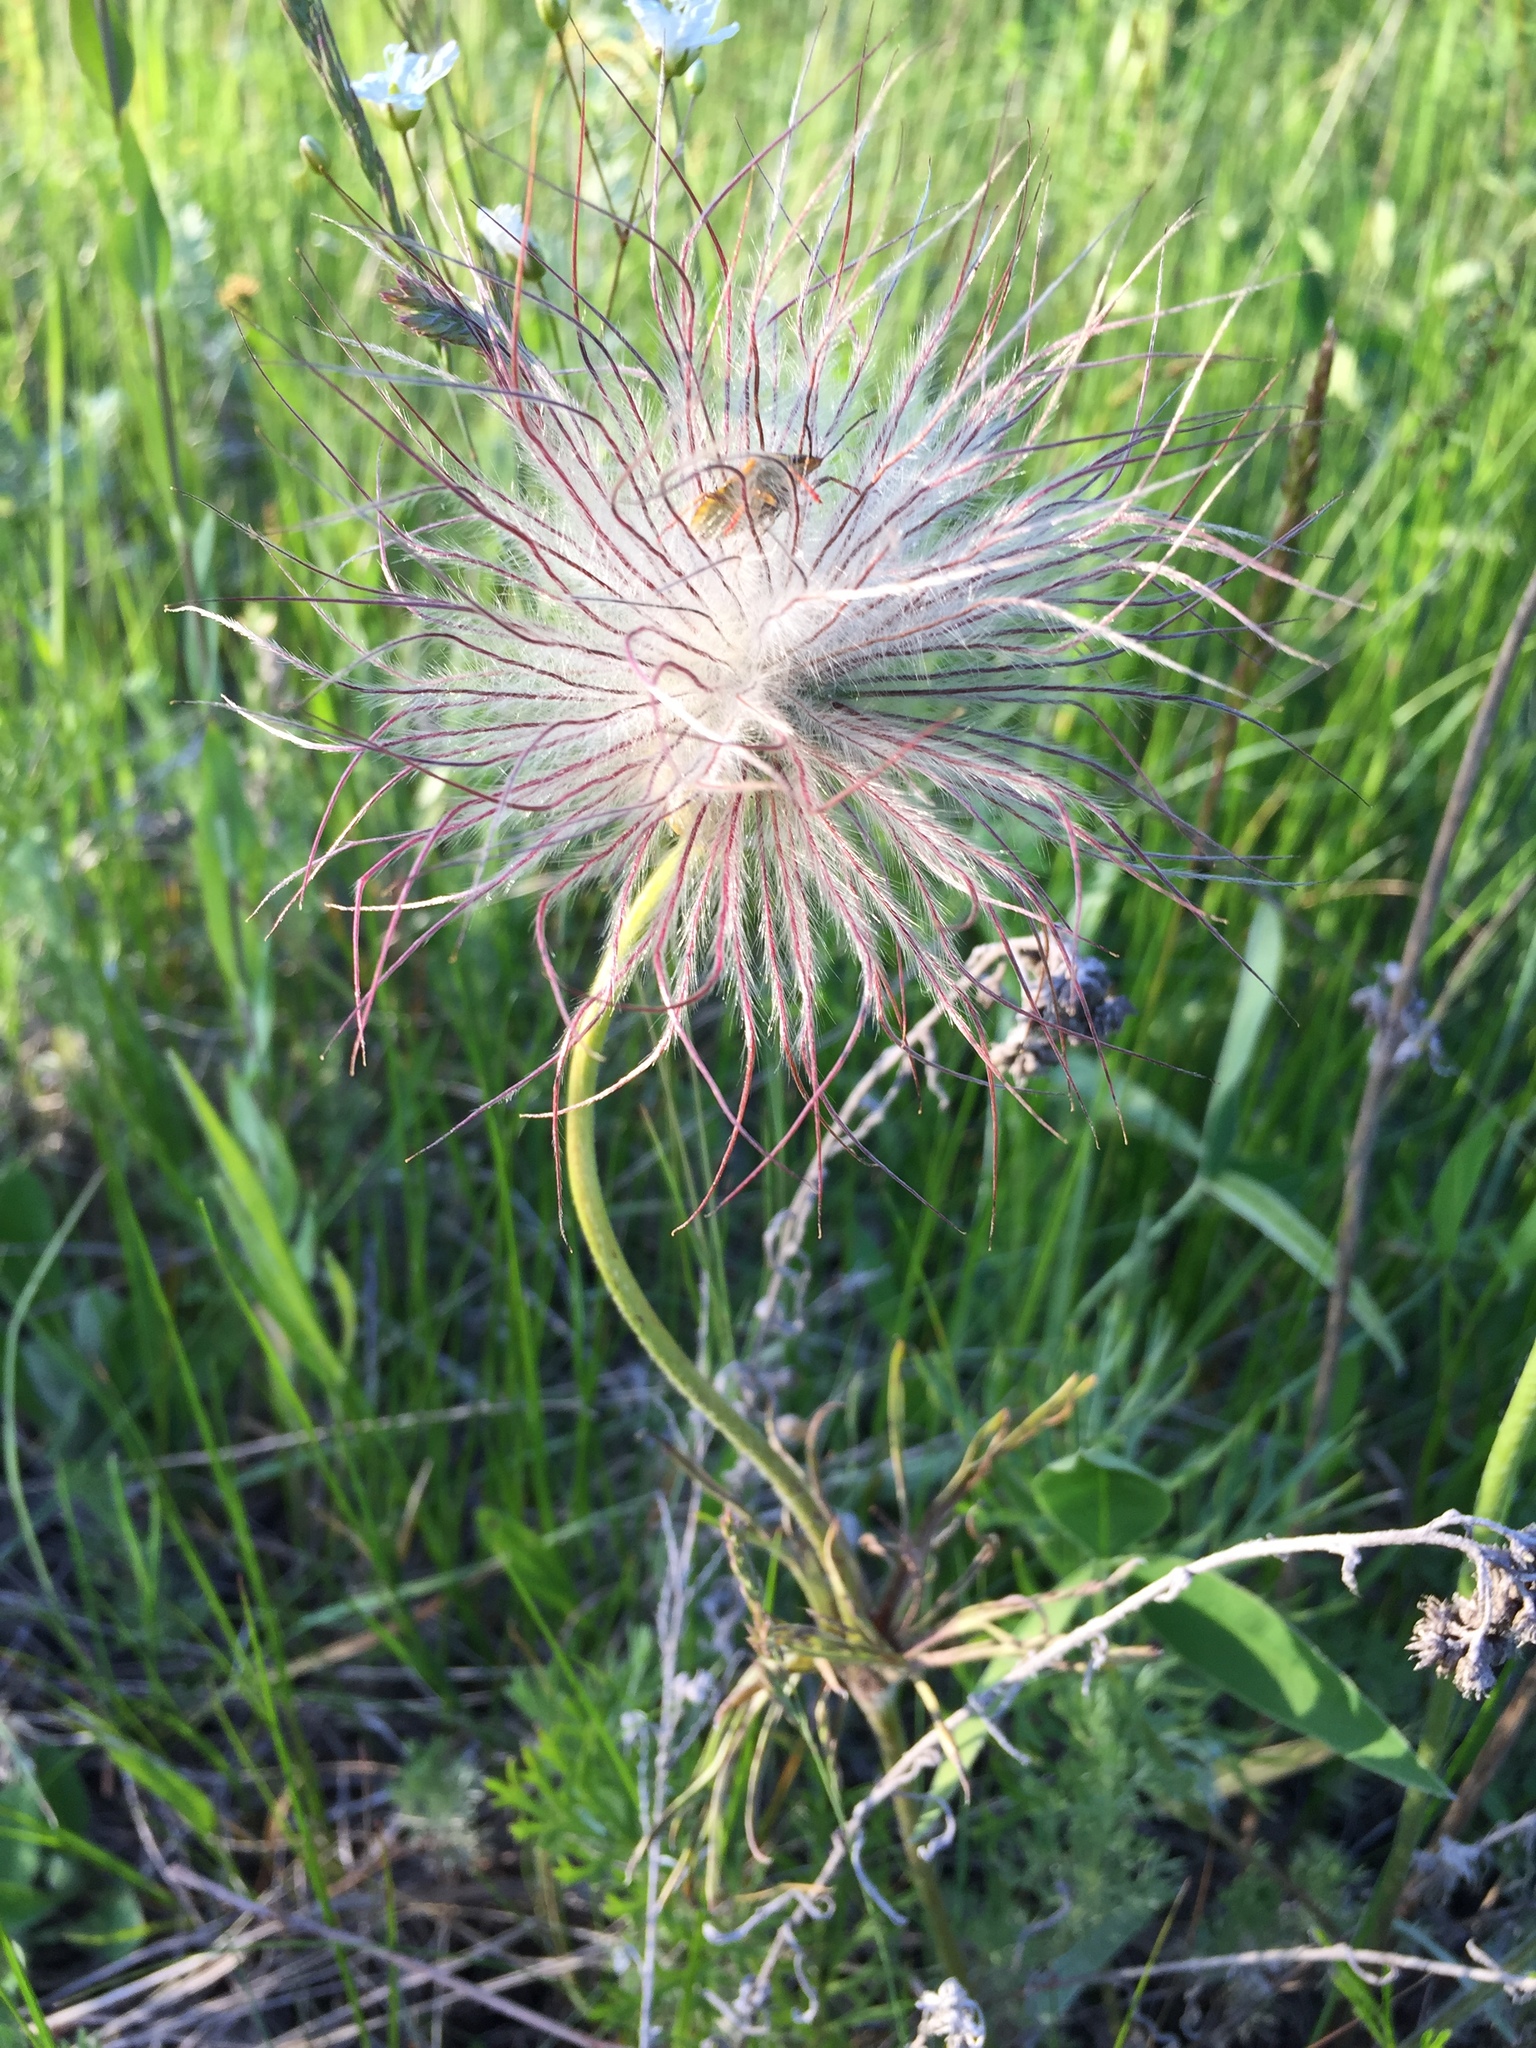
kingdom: Plantae
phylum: Tracheophyta
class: Magnoliopsida
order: Ranunculales
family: Ranunculaceae
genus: Pulsatilla
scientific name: Pulsatilla pratensis
